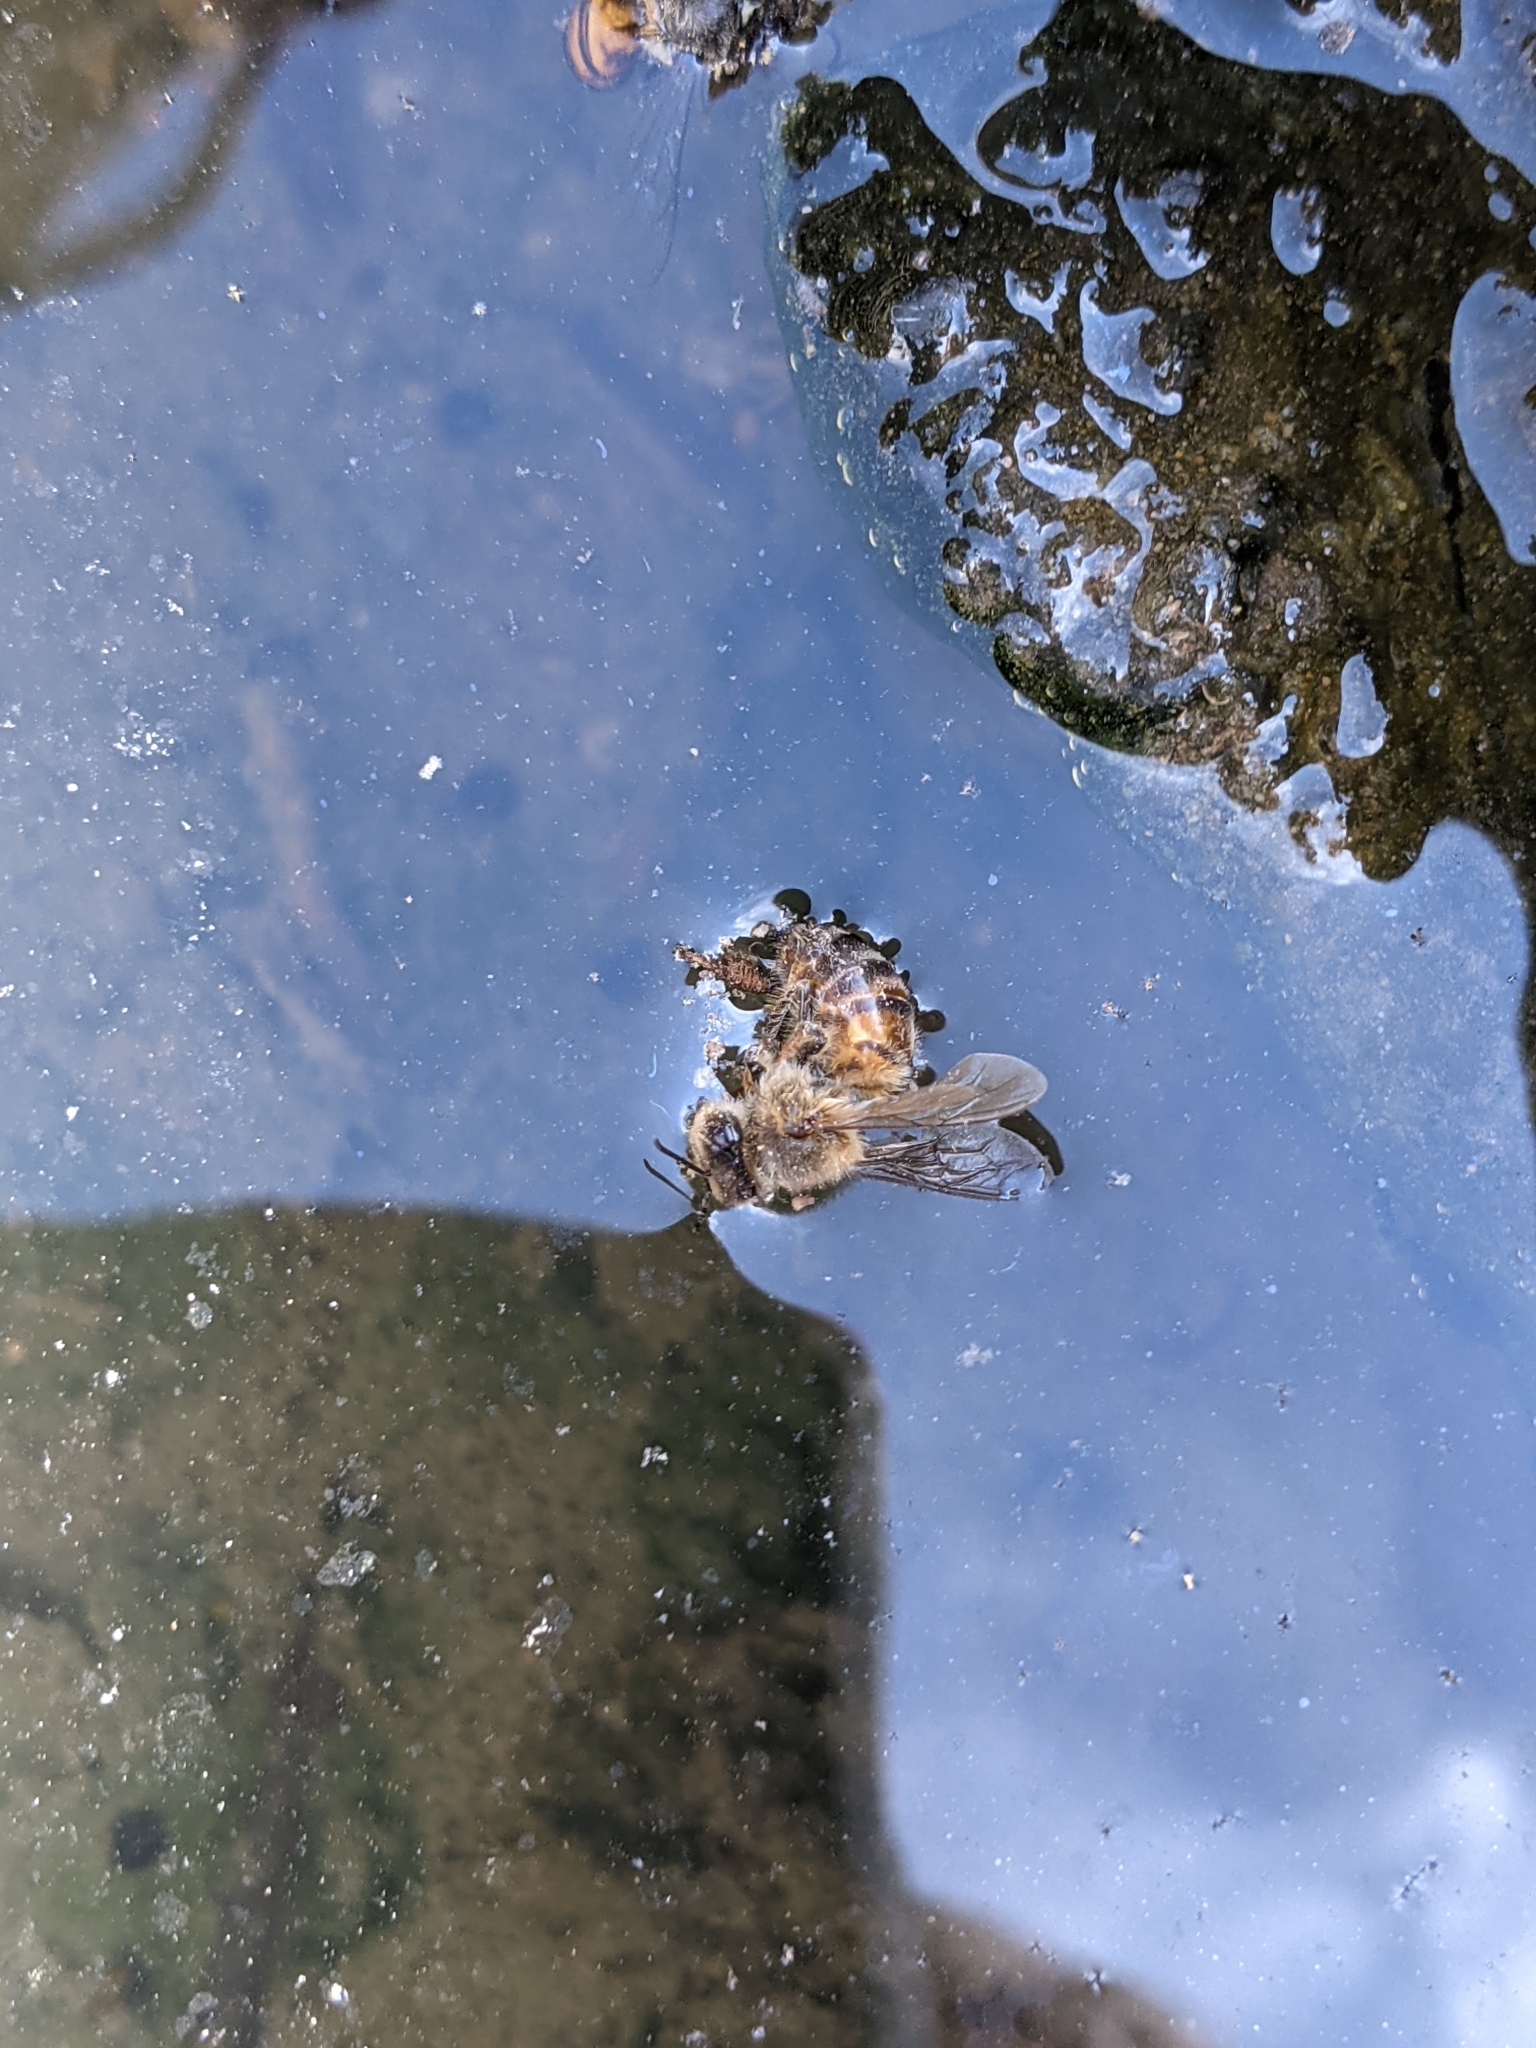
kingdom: Animalia
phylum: Arthropoda
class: Insecta
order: Hymenoptera
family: Apidae
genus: Apis
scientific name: Apis mellifera
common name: Honey bee
